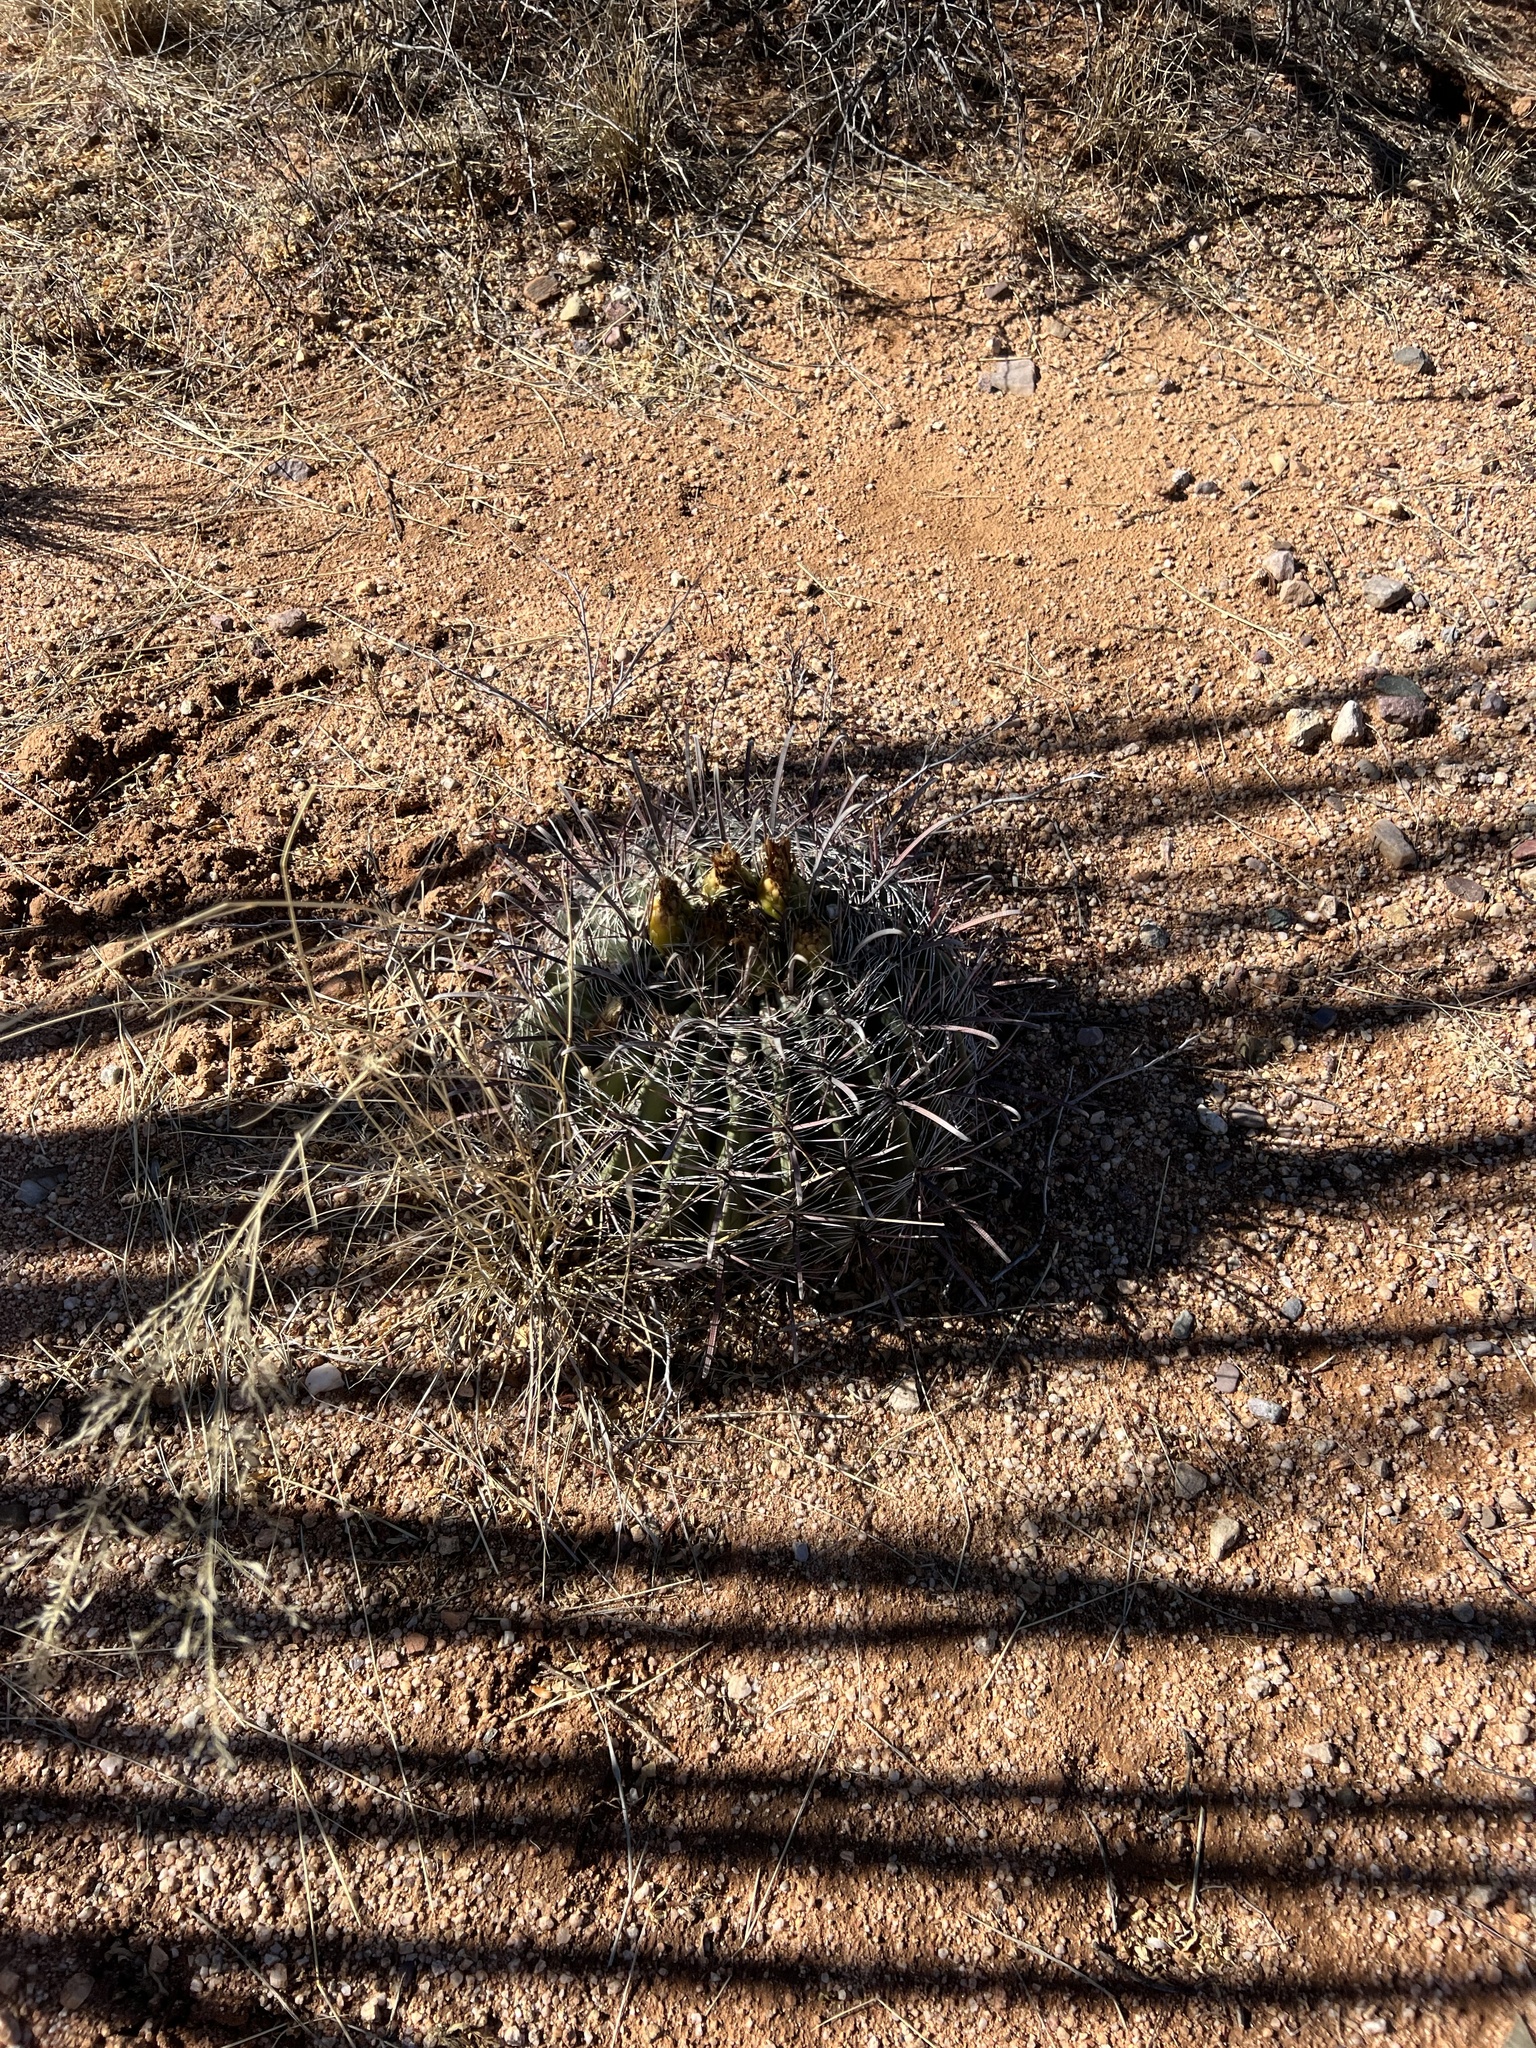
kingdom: Plantae
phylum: Tracheophyta
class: Magnoliopsida
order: Caryophyllales
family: Cactaceae
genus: Ferocactus
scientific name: Ferocactus wislizeni
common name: Candy barrel cactus
